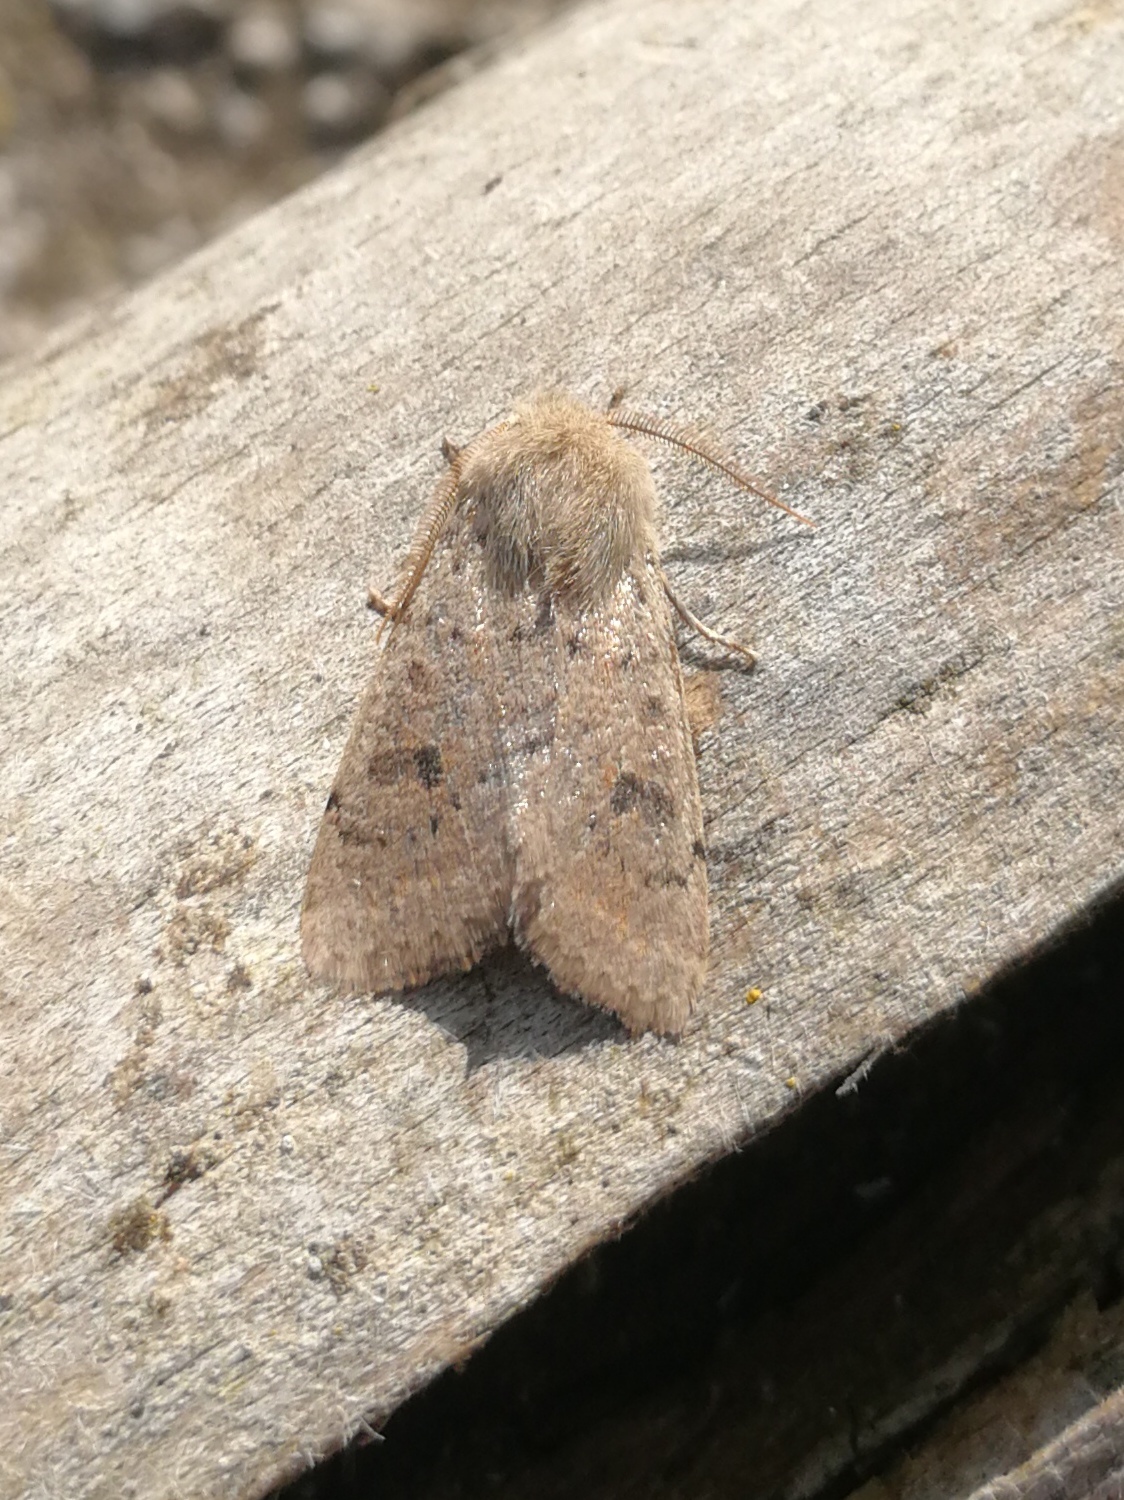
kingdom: Animalia
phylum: Arthropoda
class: Insecta
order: Lepidoptera
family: Noctuidae
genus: Orthosia
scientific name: Orthosia cruda
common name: Small quaker
